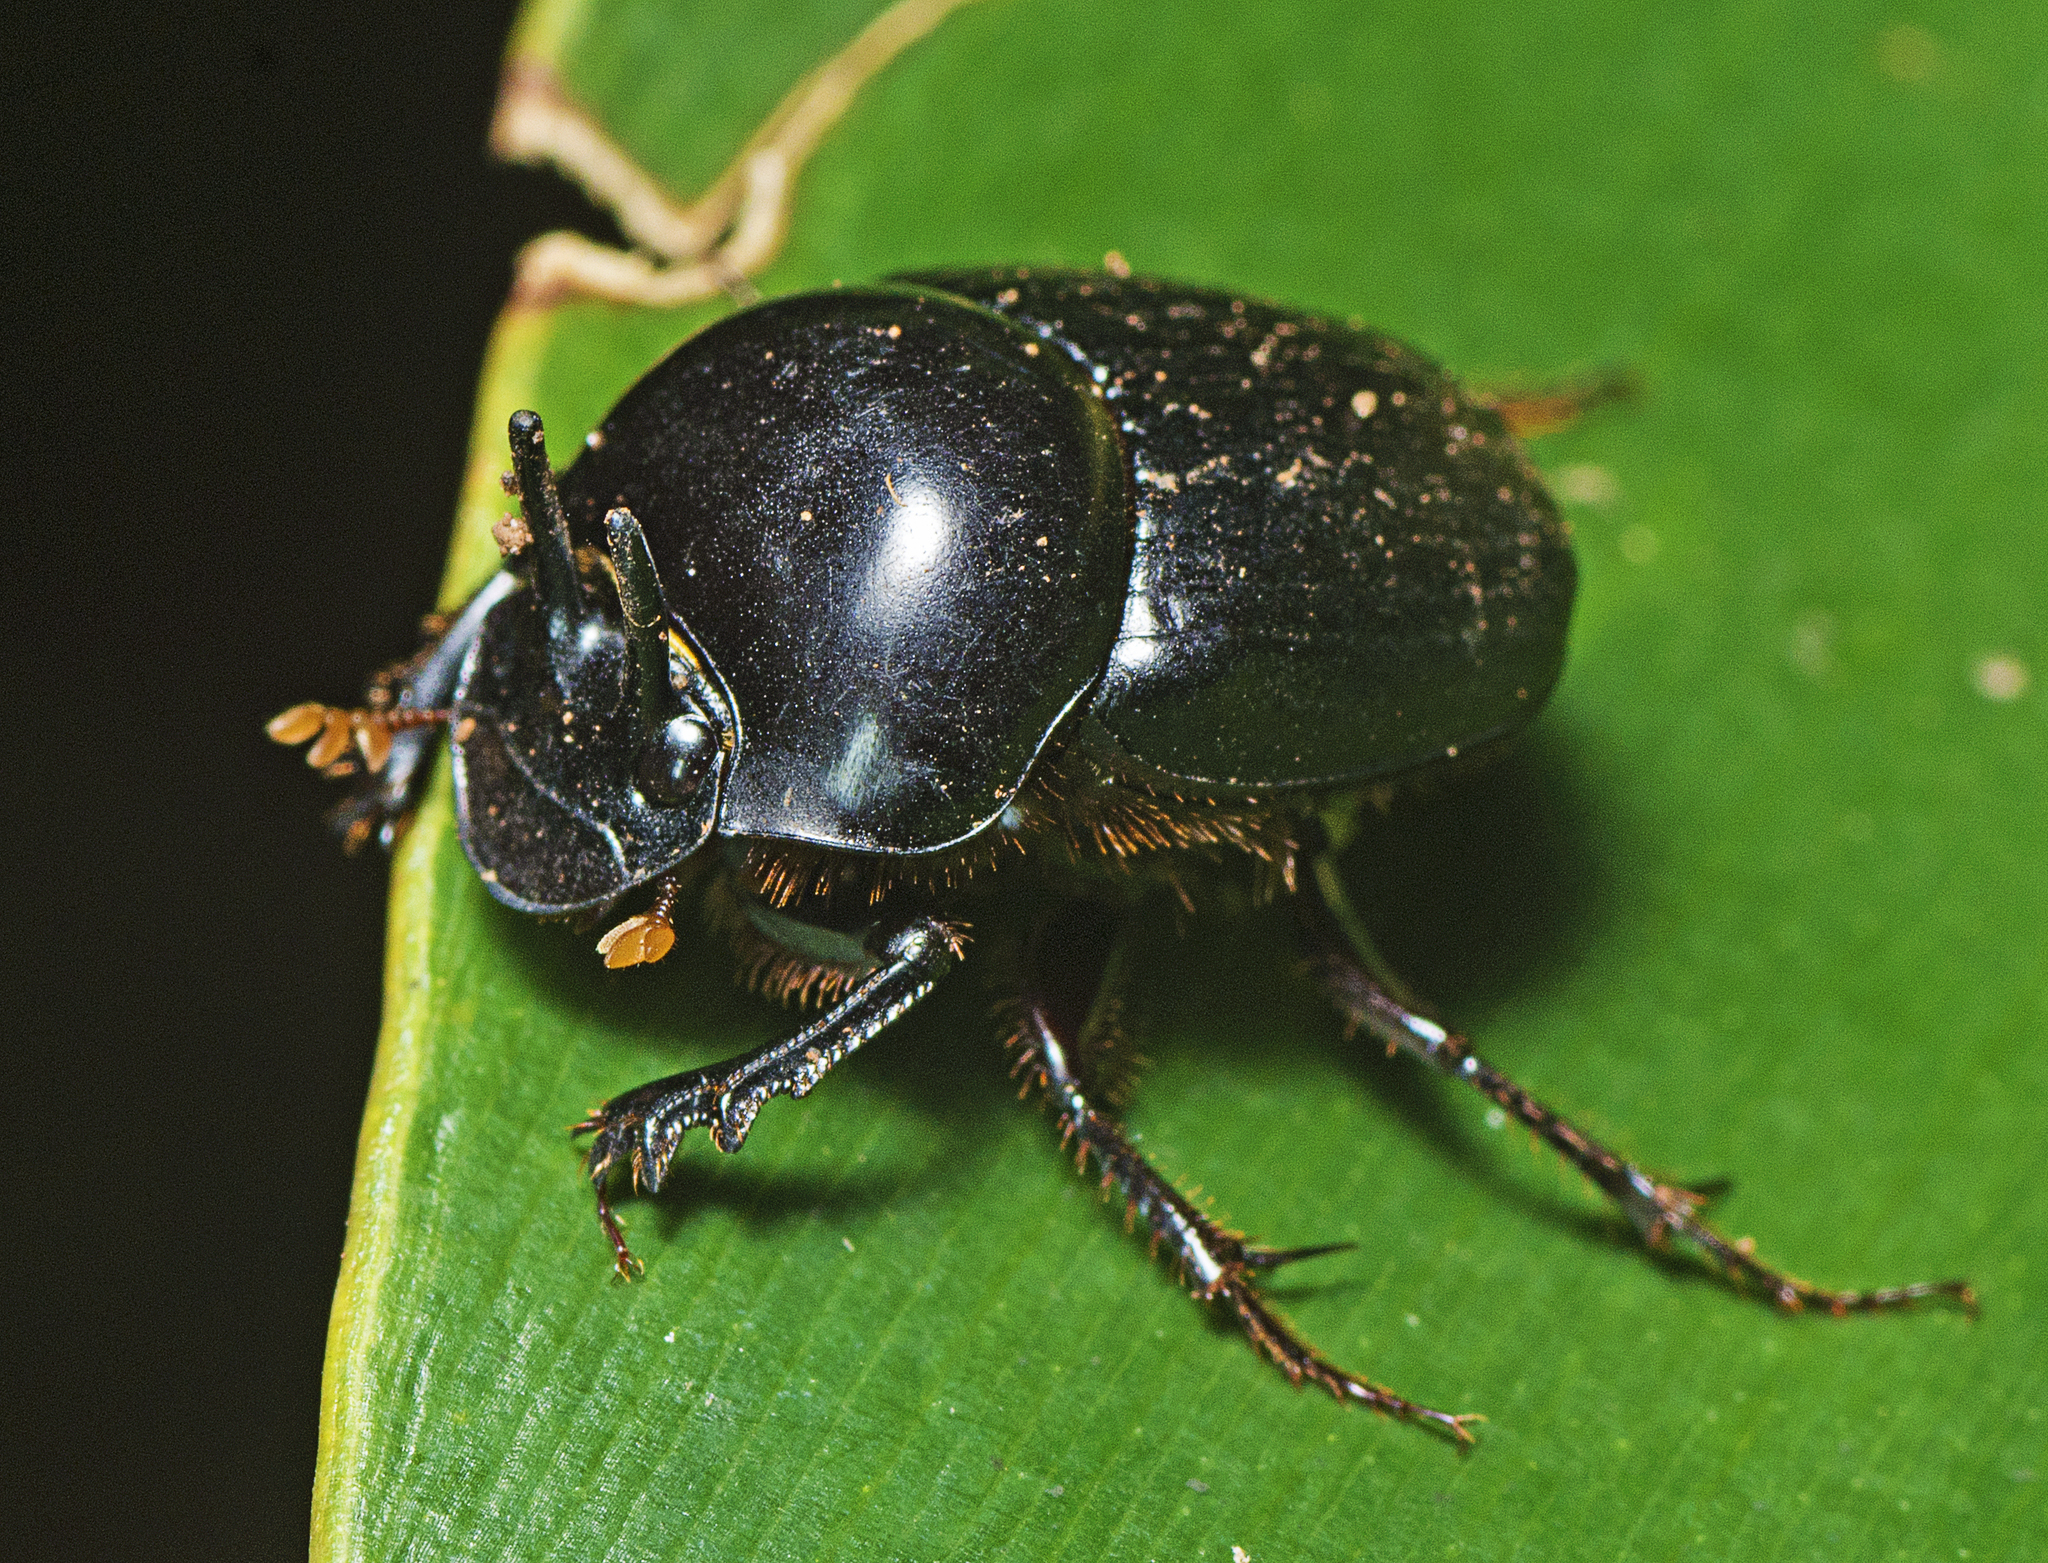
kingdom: Animalia
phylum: Arthropoda
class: Insecta
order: Coleoptera
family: Scarabaeidae
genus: Onthophagus
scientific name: Onthophagus neostenocerus
